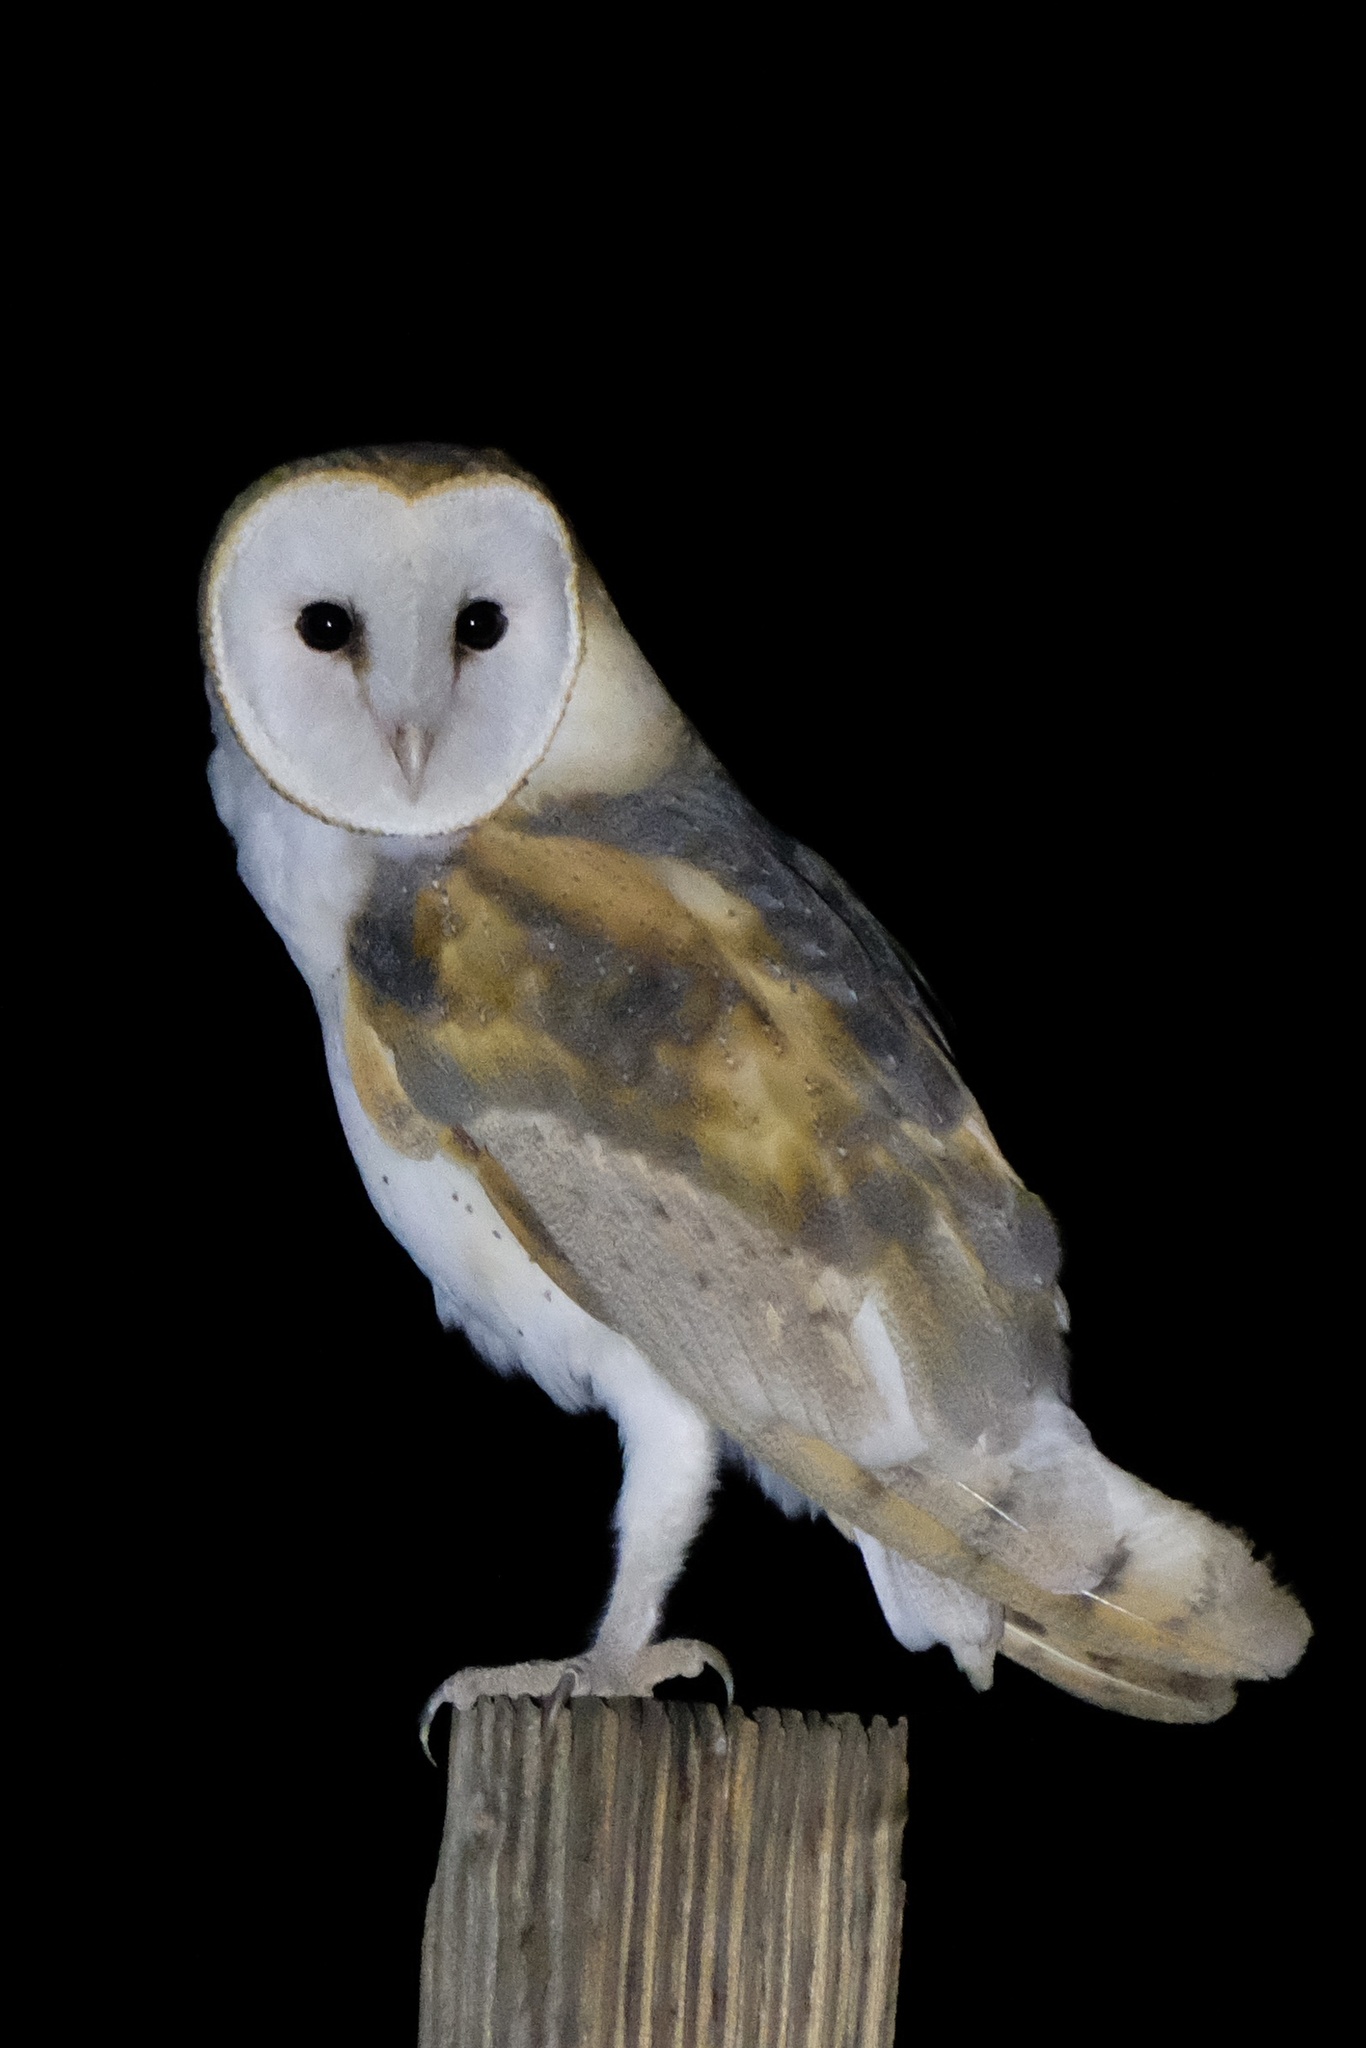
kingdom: Animalia
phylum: Chordata
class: Aves
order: Strigiformes
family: Tytonidae
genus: Tyto
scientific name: Tyto furcata
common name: American barn owl
